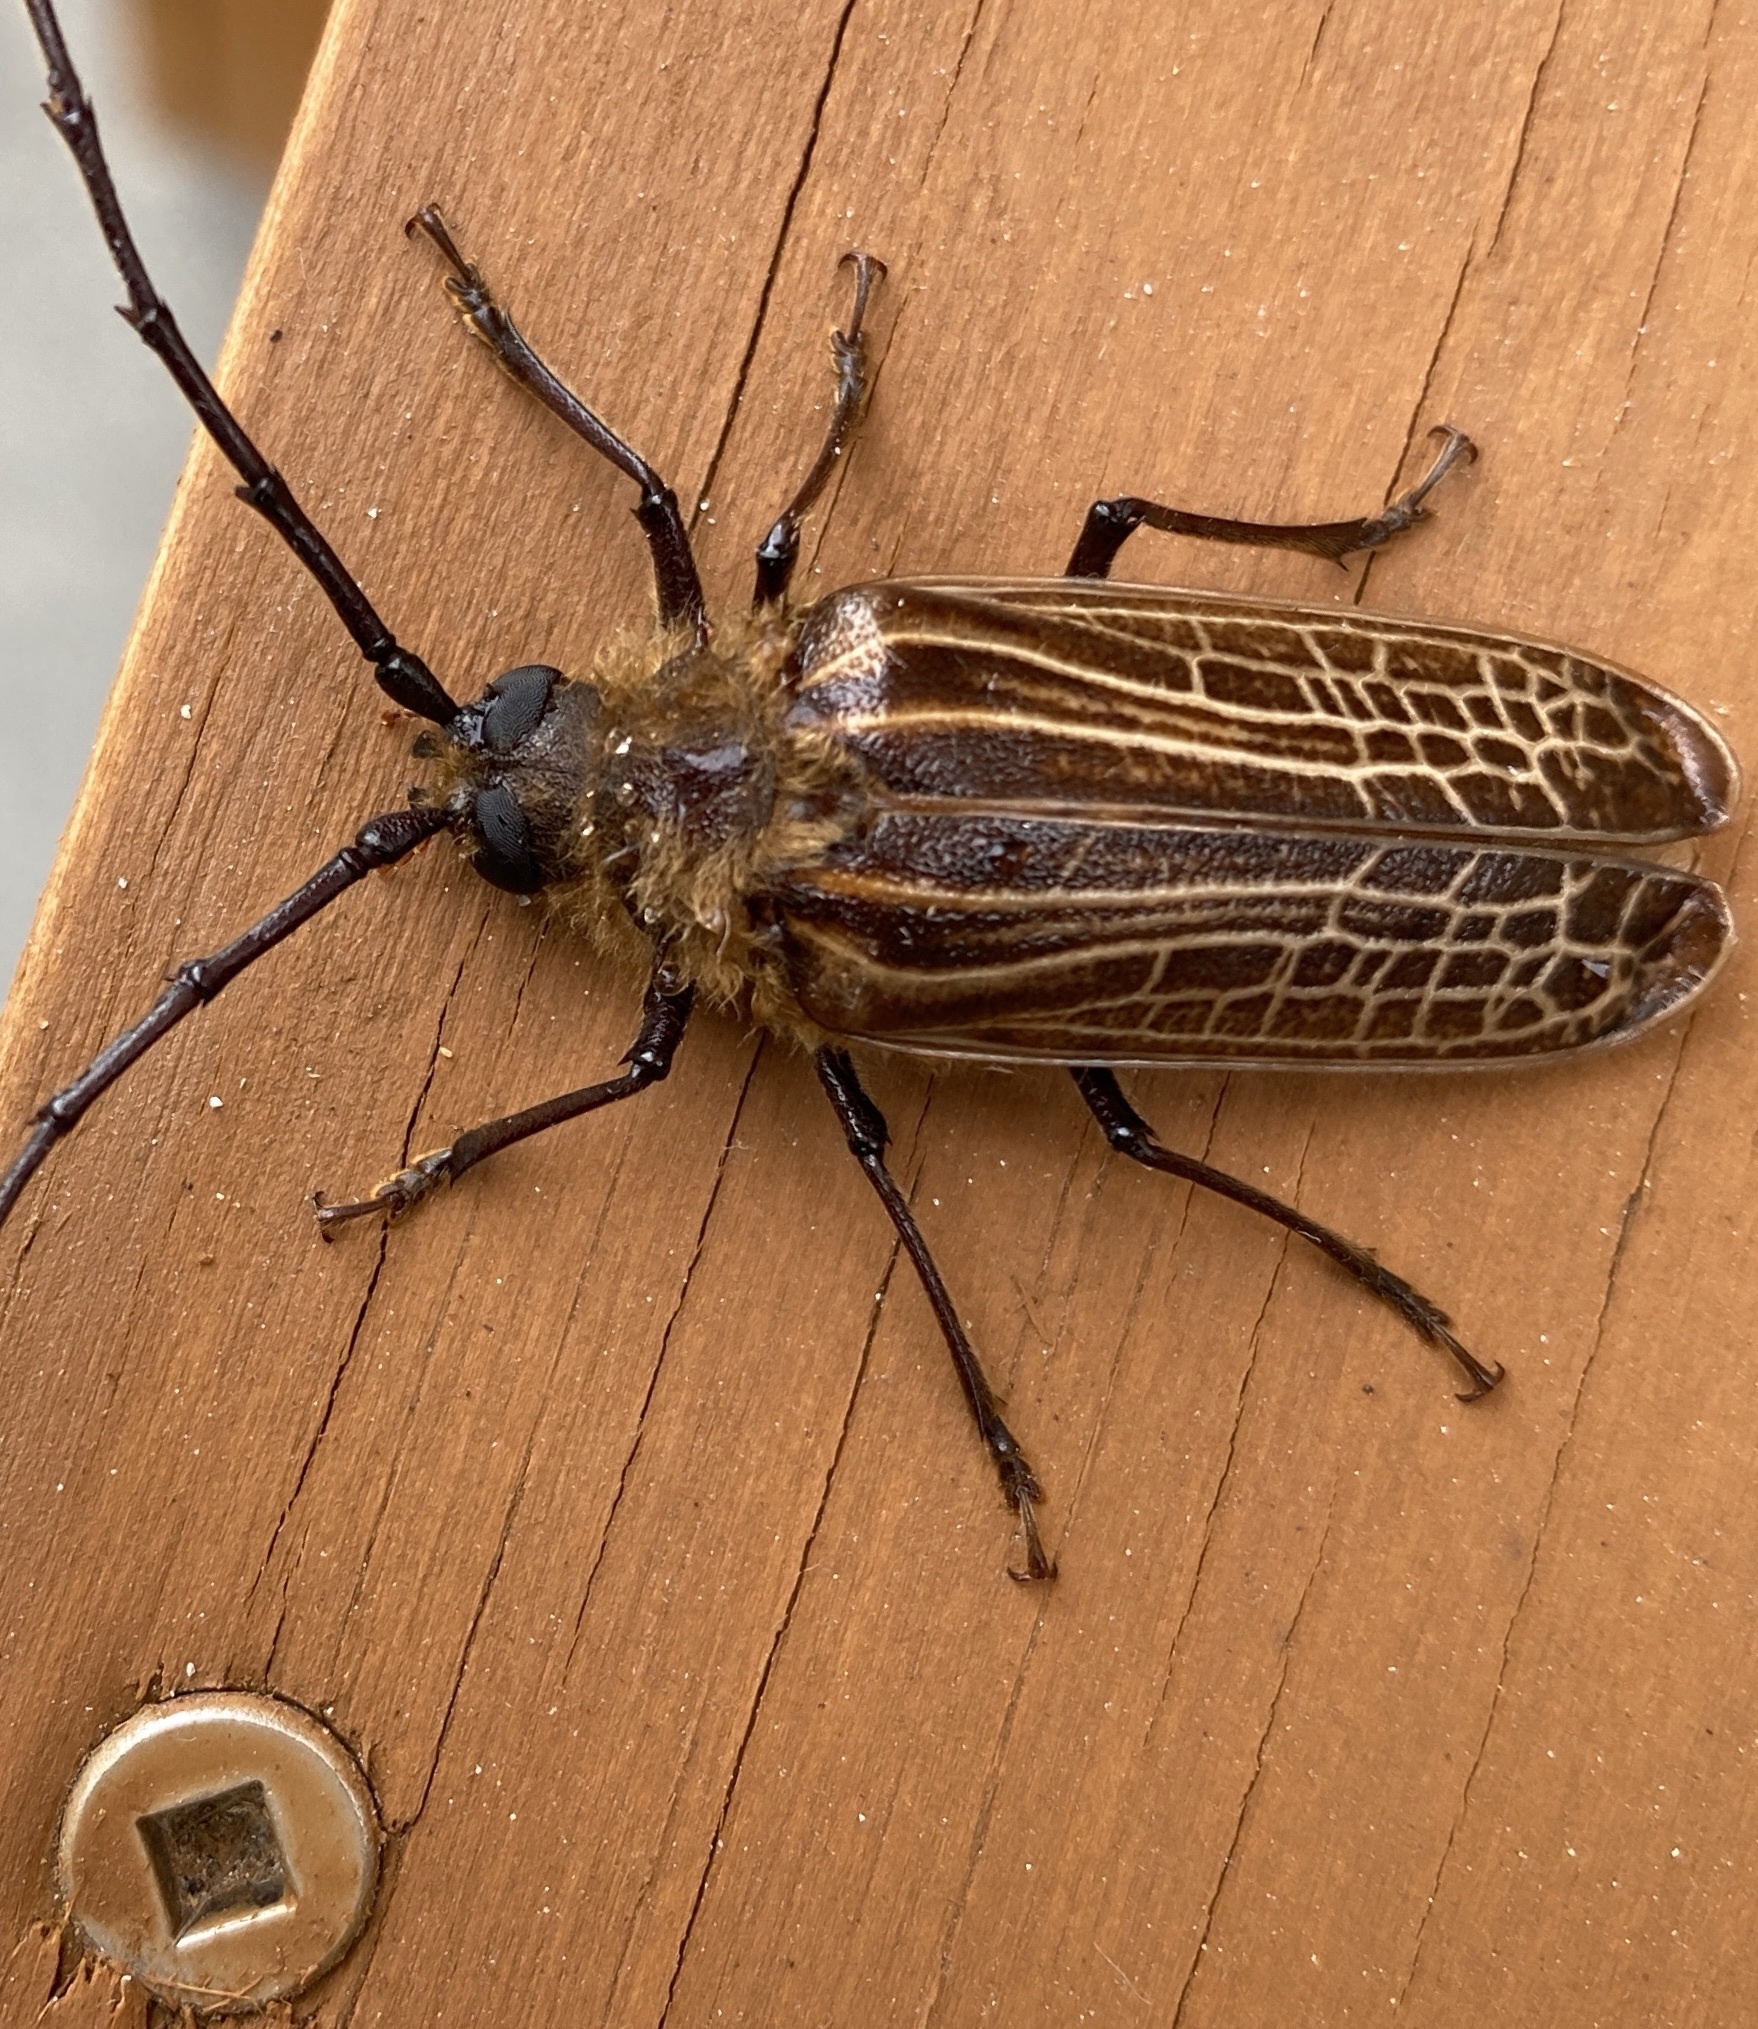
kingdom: Animalia
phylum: Arthropoda
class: Insecta
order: Coleoptera
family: Cerambycidae
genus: Prionoplus
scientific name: Prionoplus reticularis
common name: Huhu beetle
